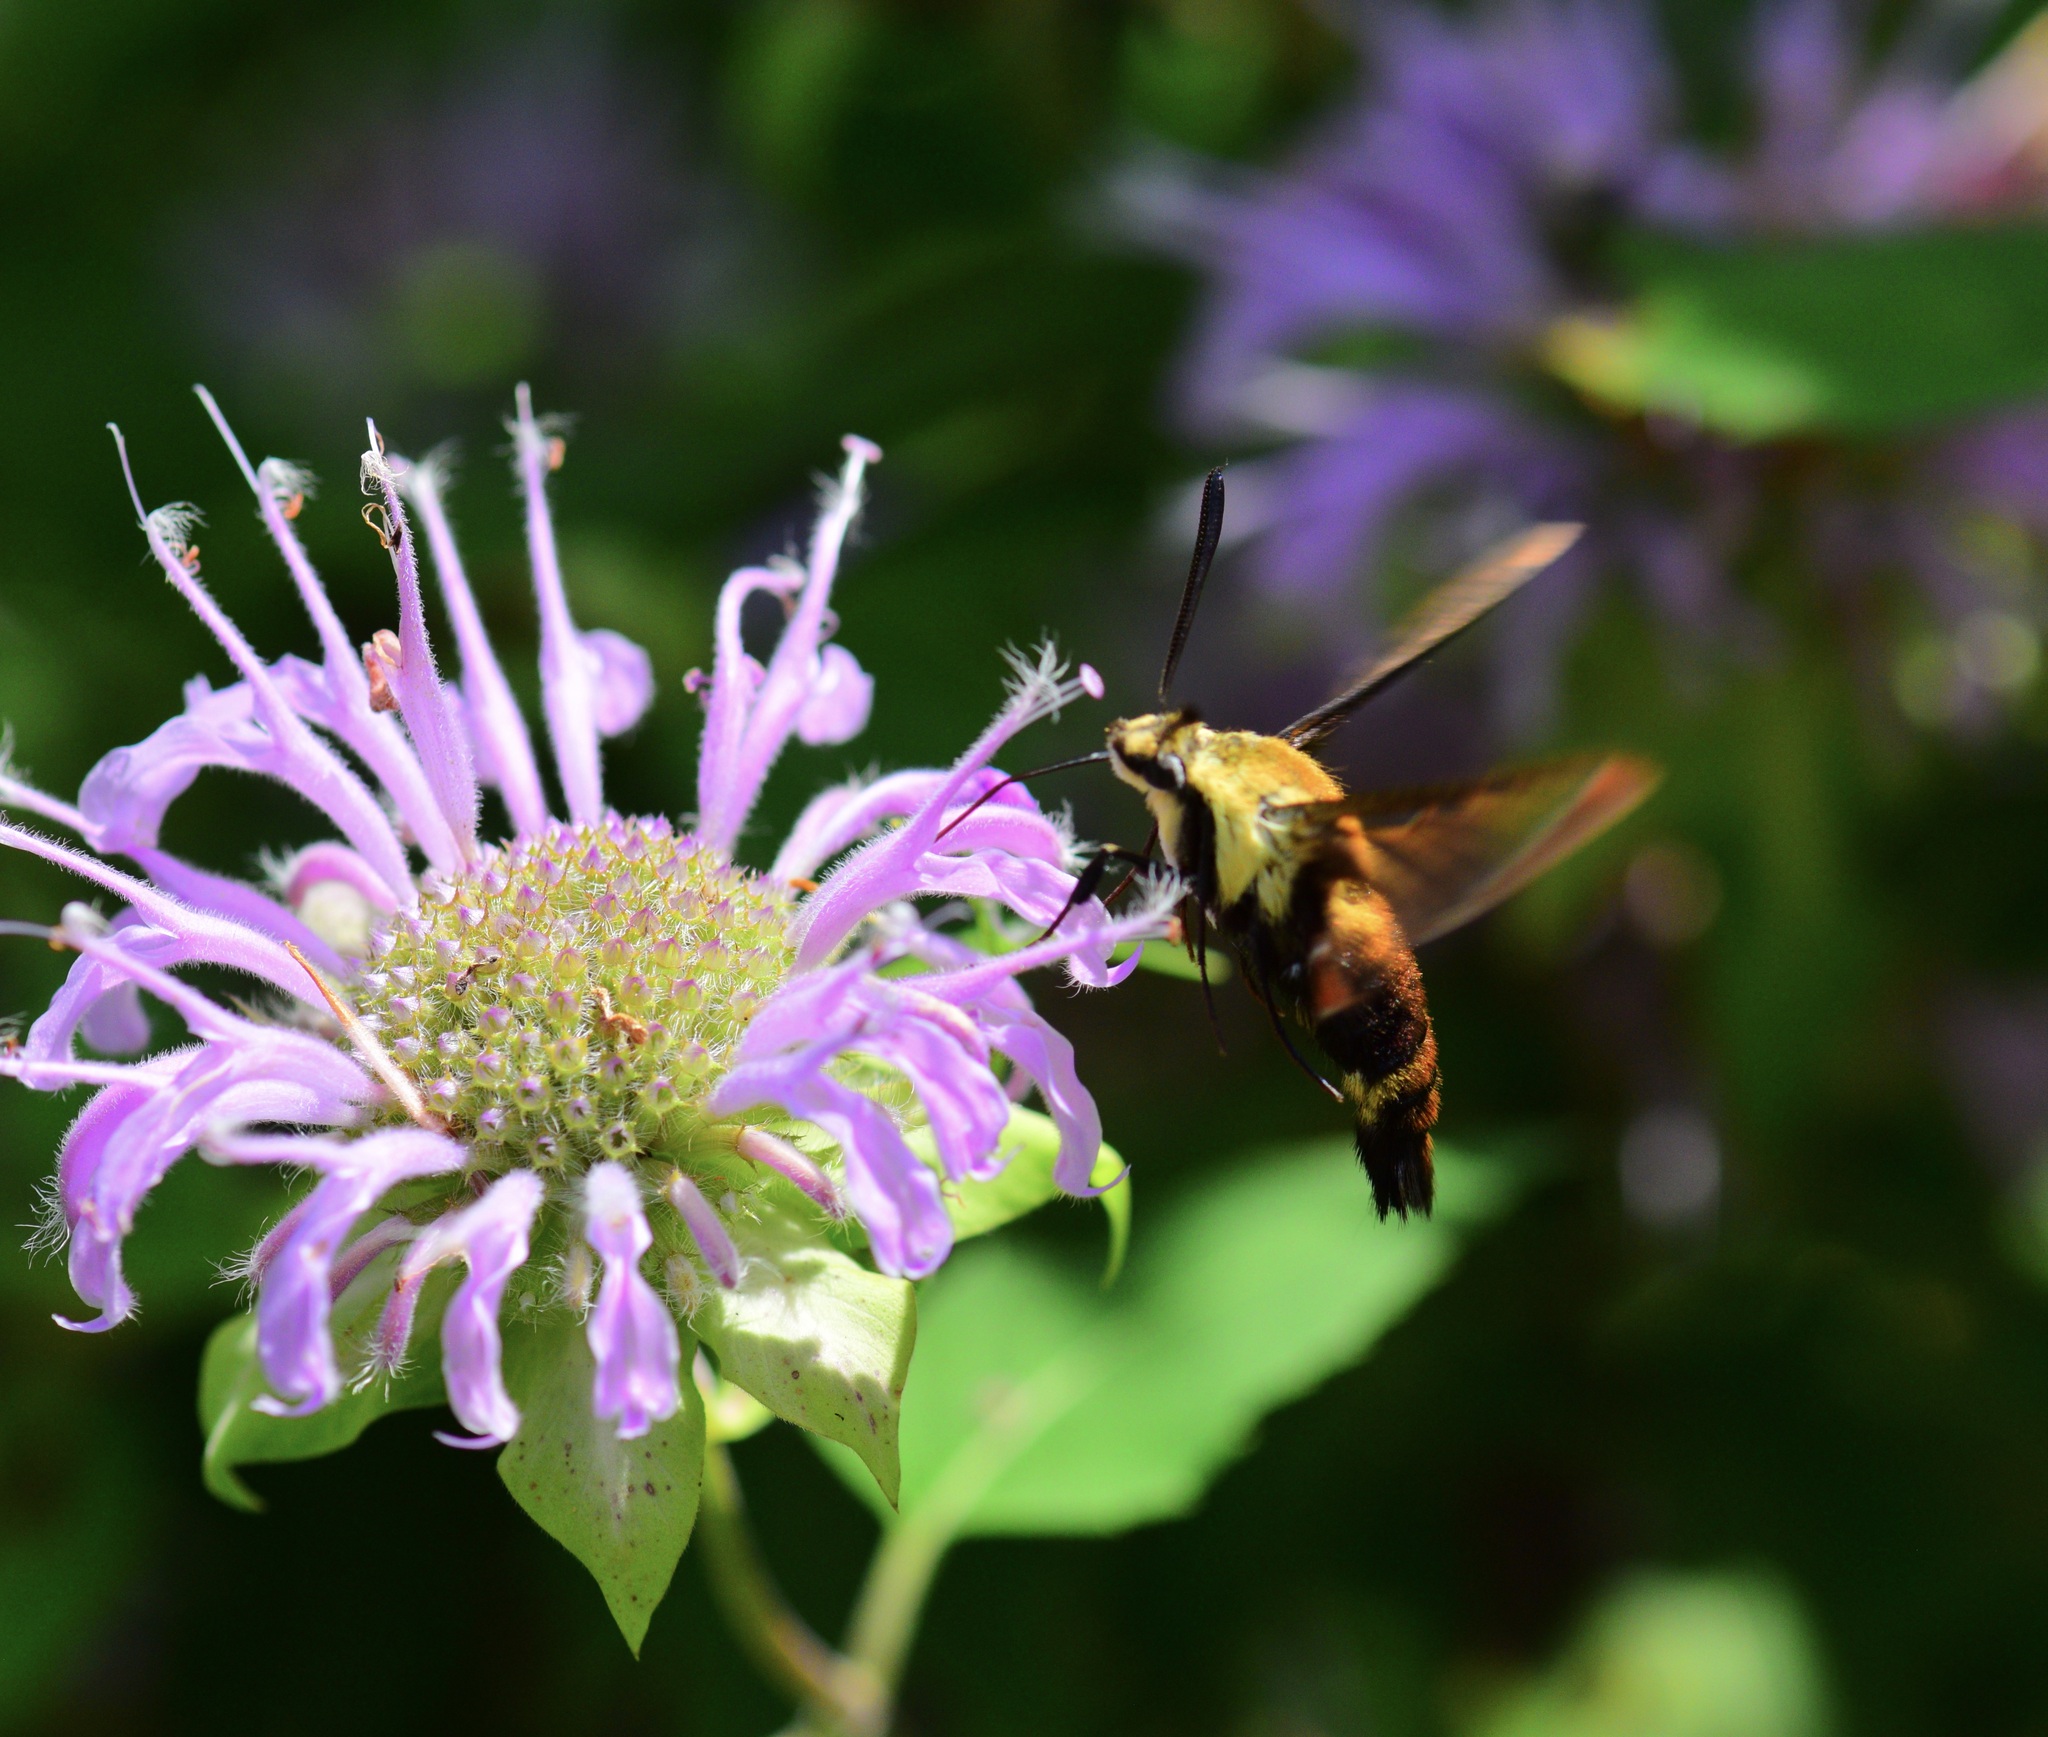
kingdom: Animalia
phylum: Arthropoda
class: Insecta
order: Lepidoptera
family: Sphingidae
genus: Hemaris
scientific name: Hemaris diffinis
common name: Bumblebee moth
